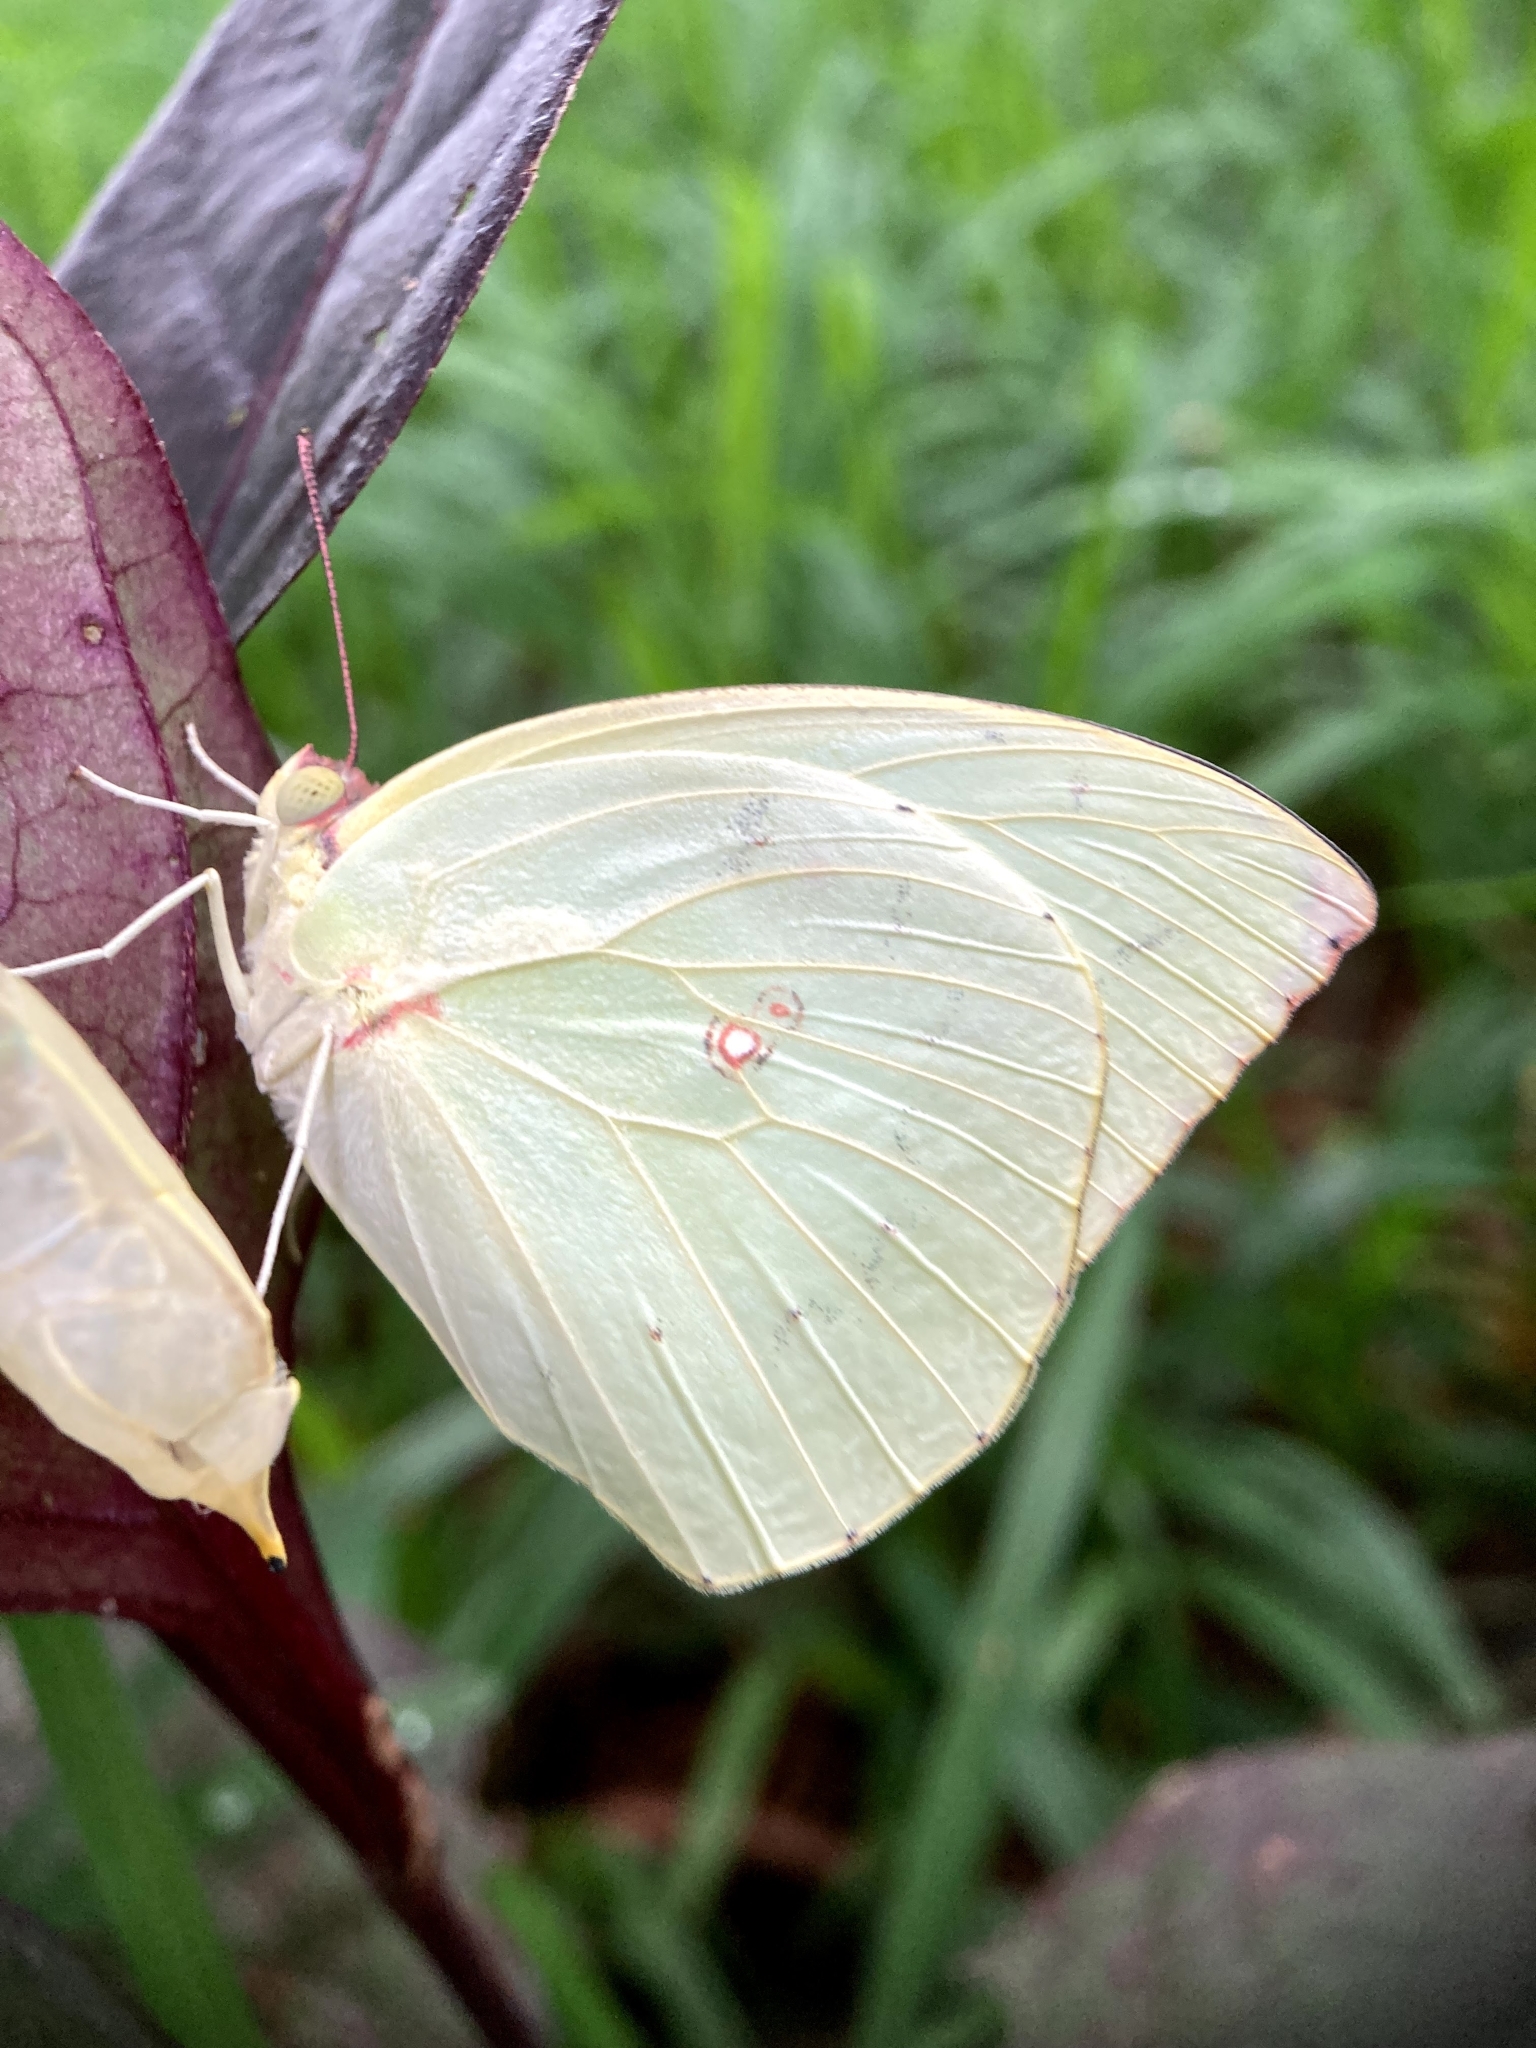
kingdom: Animalia
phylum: Arthropoda
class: Insecta
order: Lepidoptera
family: Pieridae
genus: Catopsilia
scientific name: Catopsilia pomona
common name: Common emigrant
